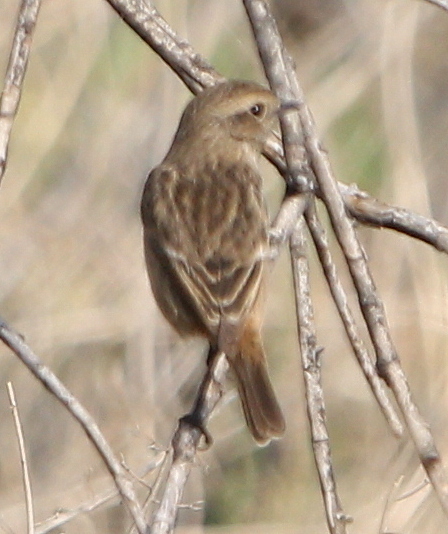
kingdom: Animalia
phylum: Chordata
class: Aves
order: Passeriformes
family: Muscicapidae
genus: Saxicola
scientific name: Saxicola rubicola
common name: European stonechat
